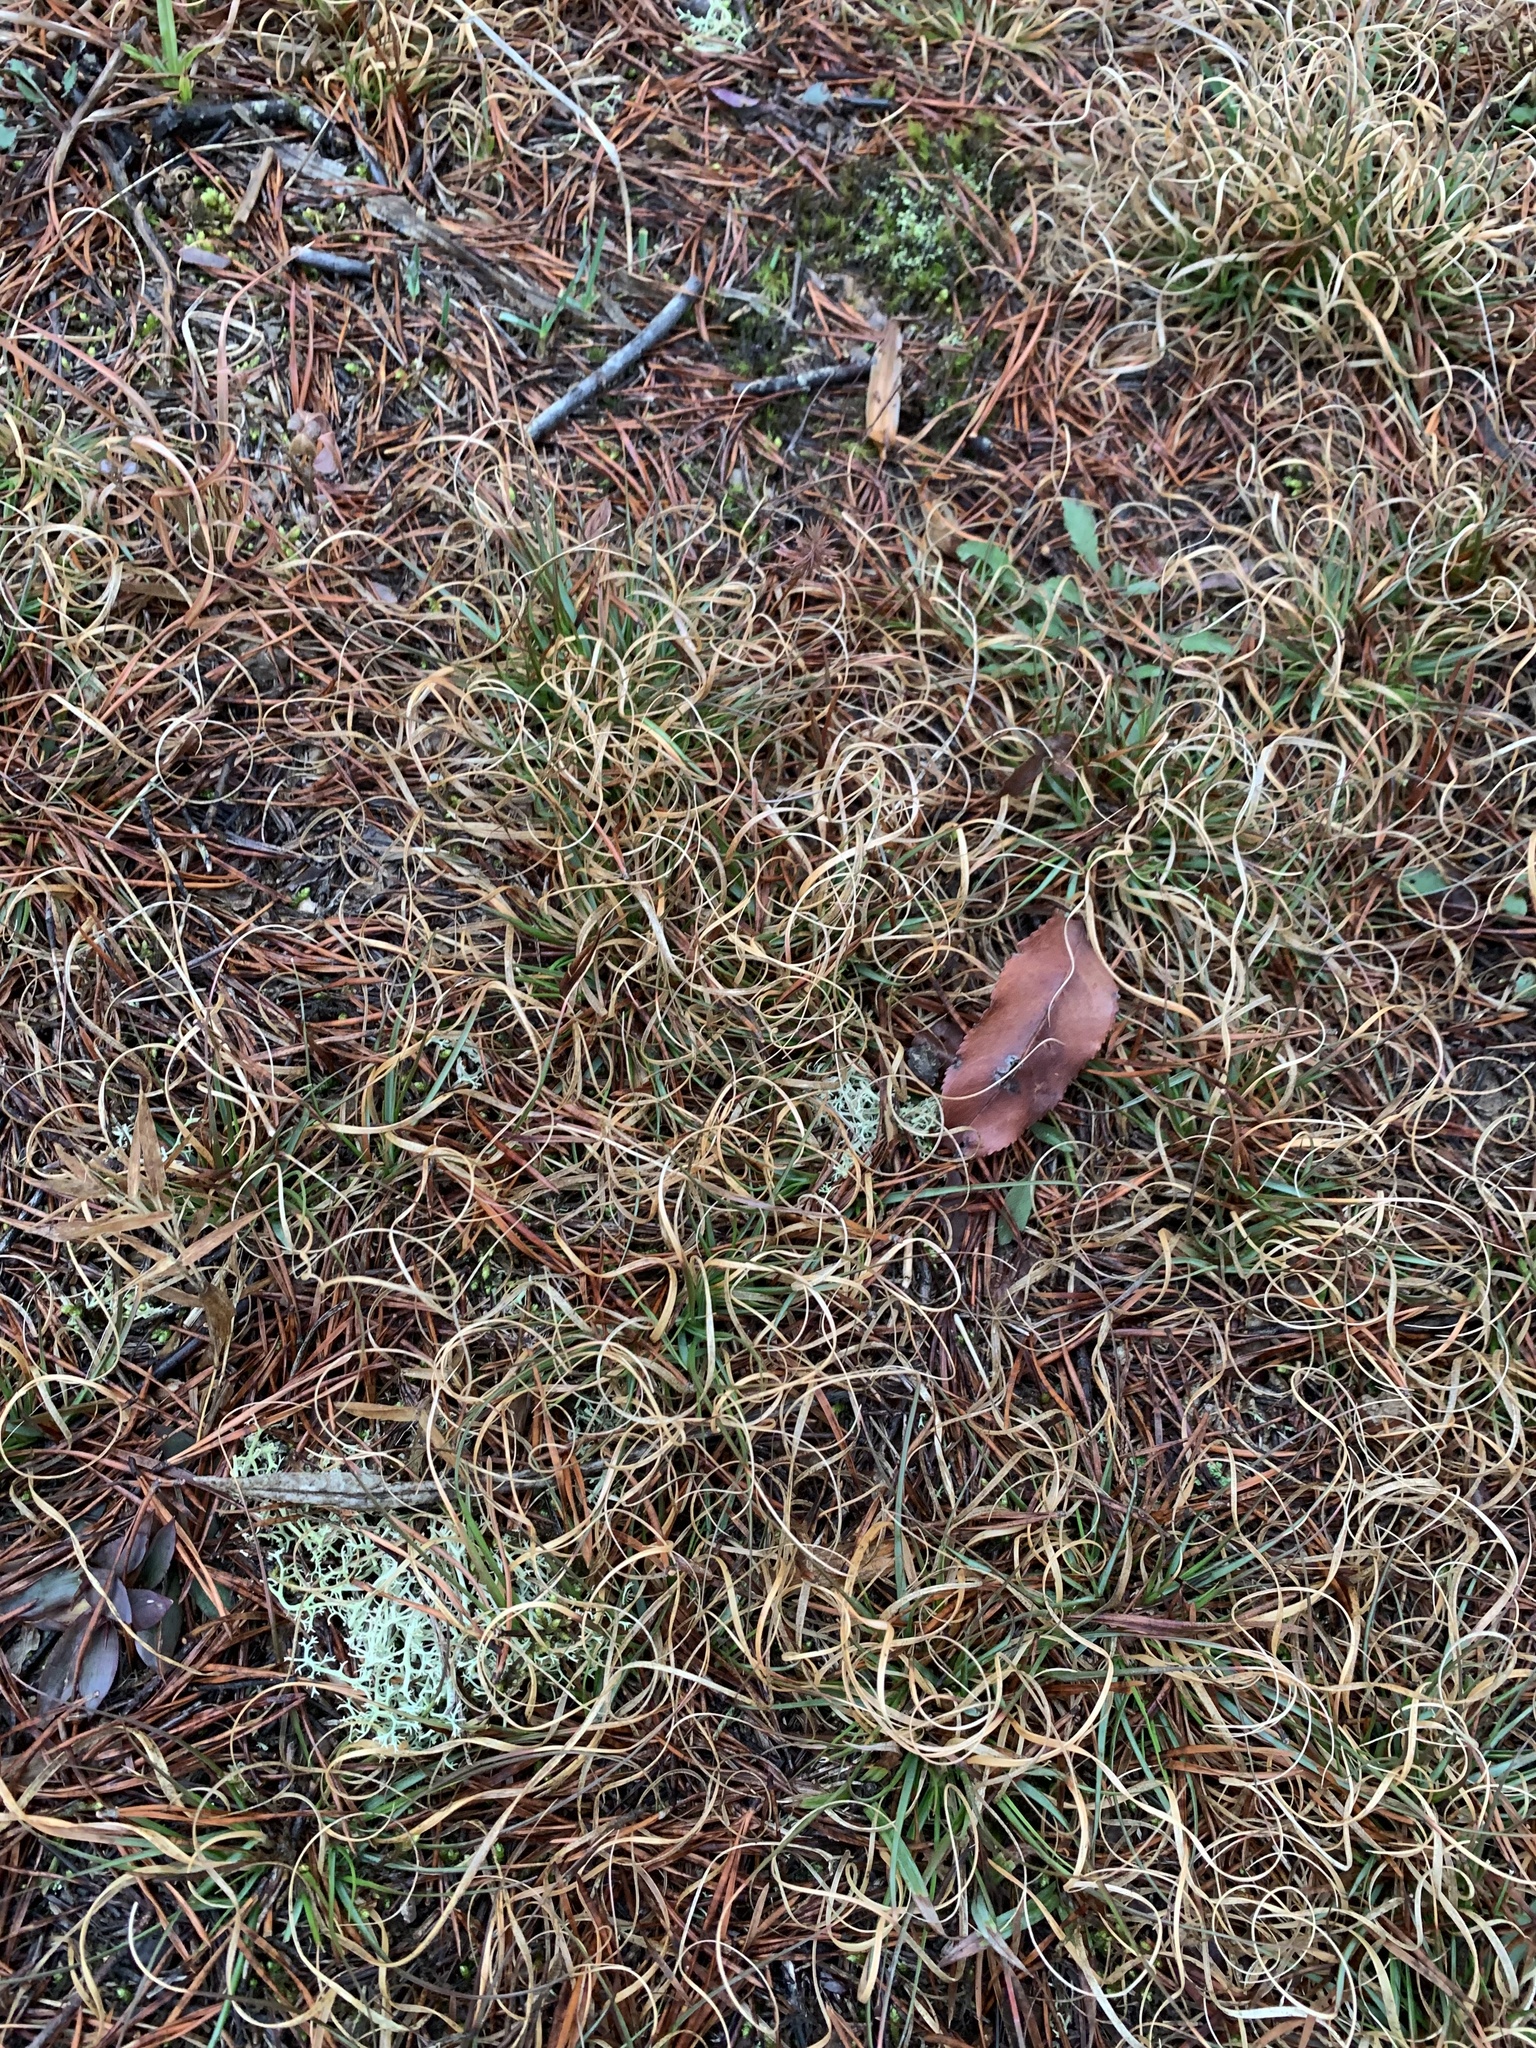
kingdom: Plantae
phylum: Tracheophyta
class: Liliopsida
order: Poales
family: Poaceae
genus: Danthonia
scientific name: Danthonia spicata
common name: Common wild oatgrass
